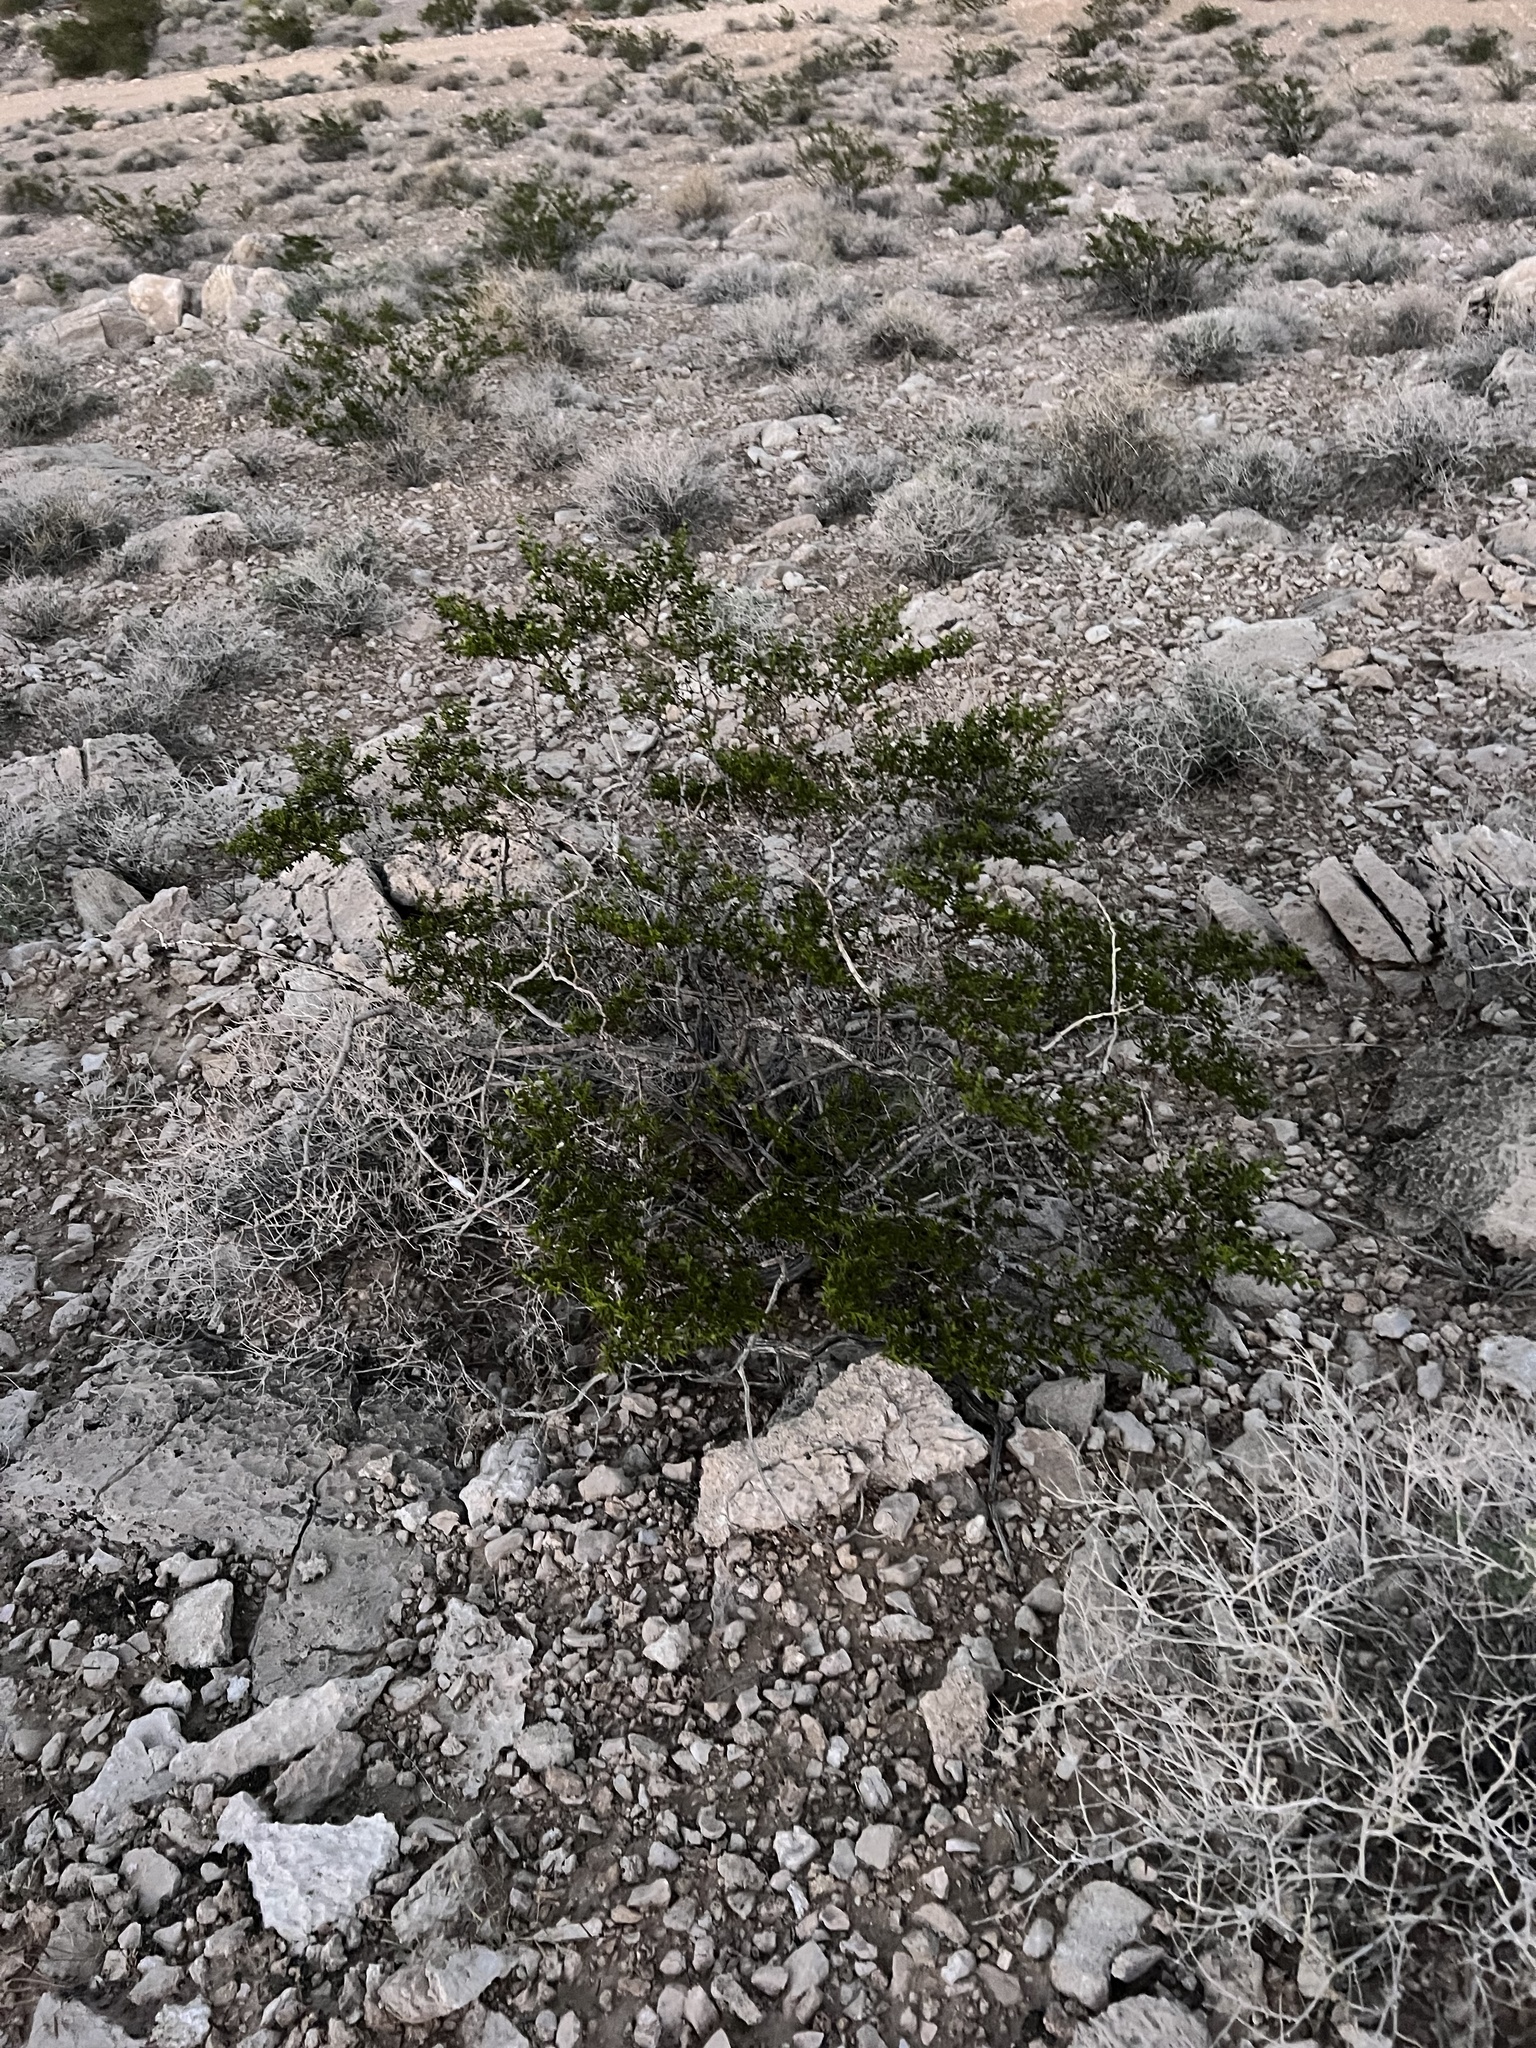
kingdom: Plantae
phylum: Tracheophyta
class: Magnoliopsida
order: Zygophyllales
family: Zygophyllaceae
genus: Larrea
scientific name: Larrea tridentata
